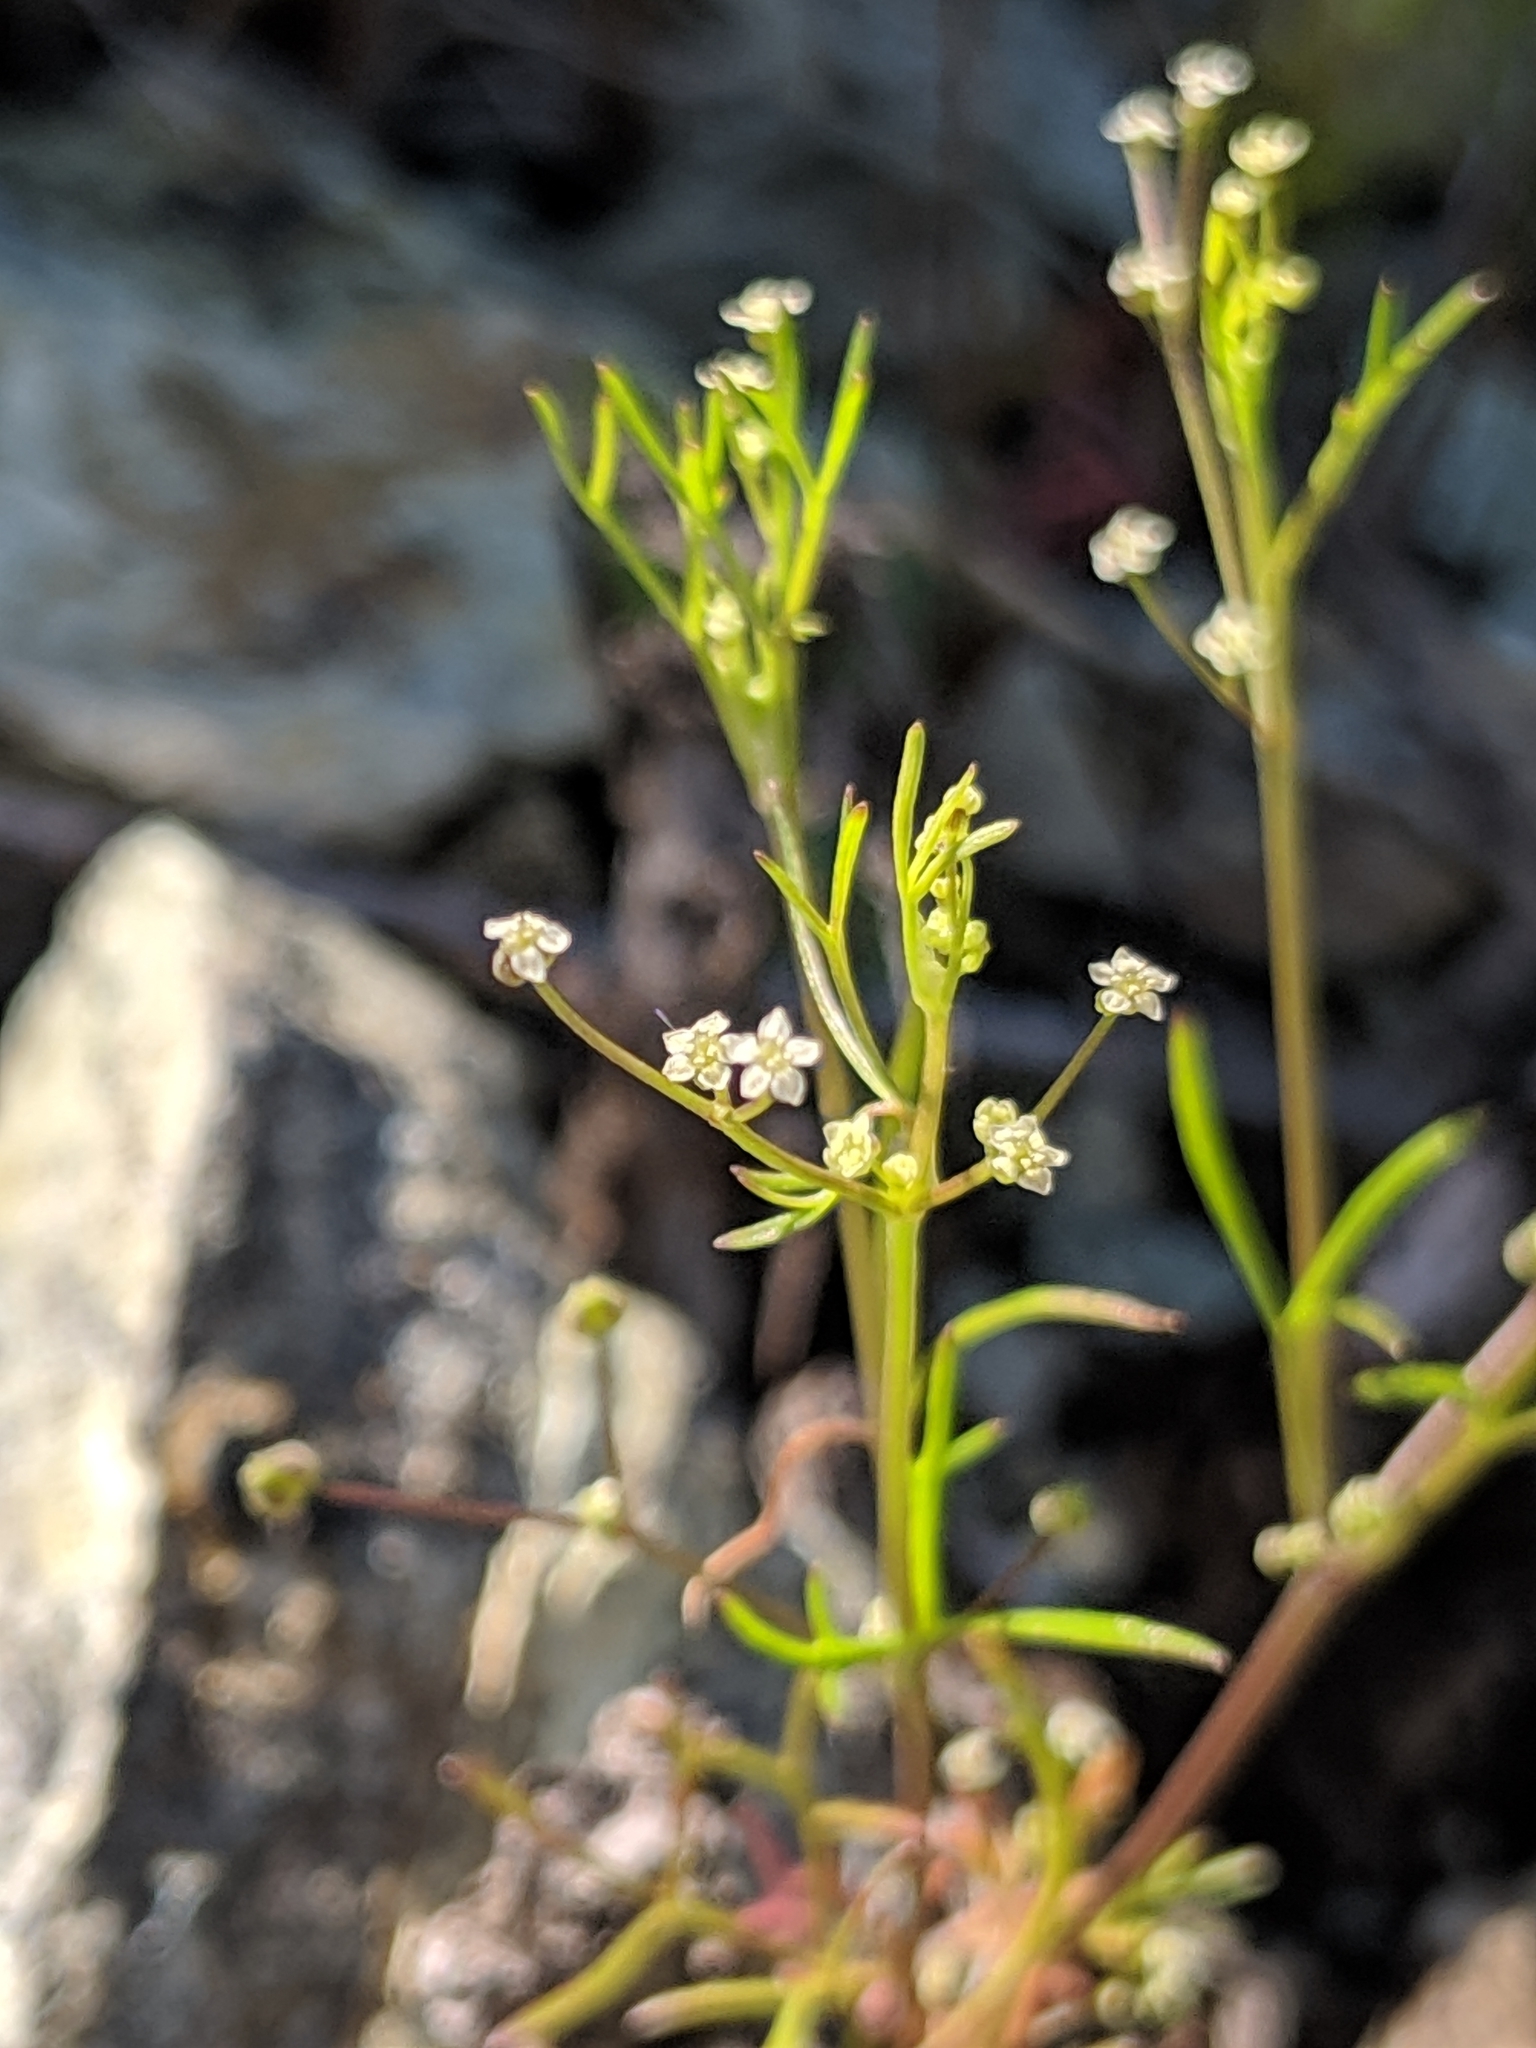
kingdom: Plantae
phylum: Tracheophyta
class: Magnoliopsida
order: Apiales
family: Apiaceae
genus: Apiastrum
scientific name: Apiastrum angustifolium
